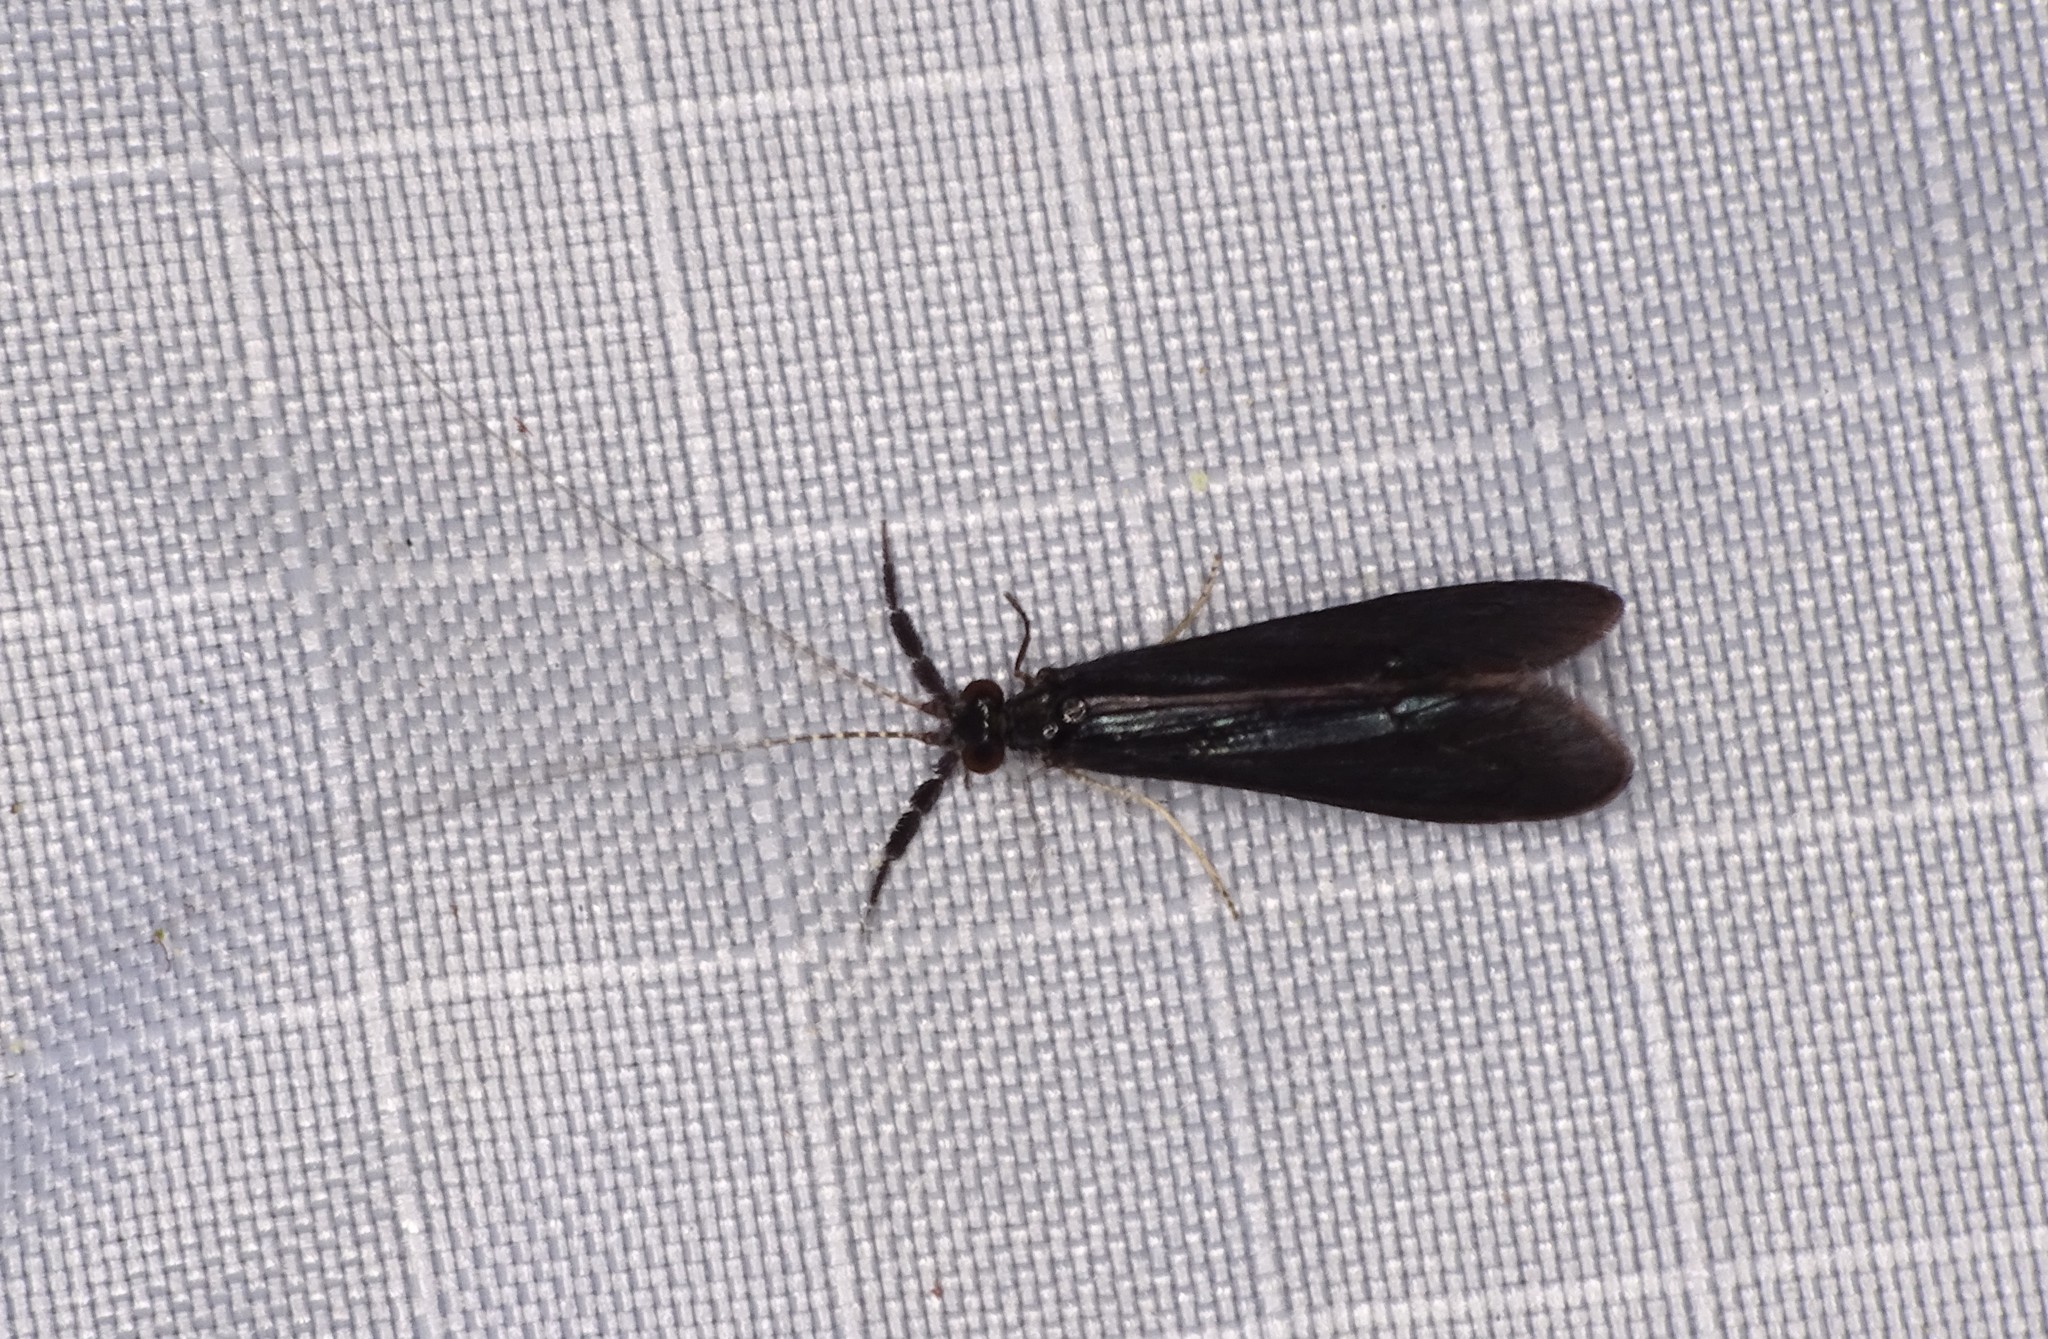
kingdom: Animalia
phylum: Arthropoda
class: Insecta
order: Trichoptera
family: Leptoceridae
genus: Mystacides
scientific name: Mystacides sepulchralis
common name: Black dancer caddisfly
